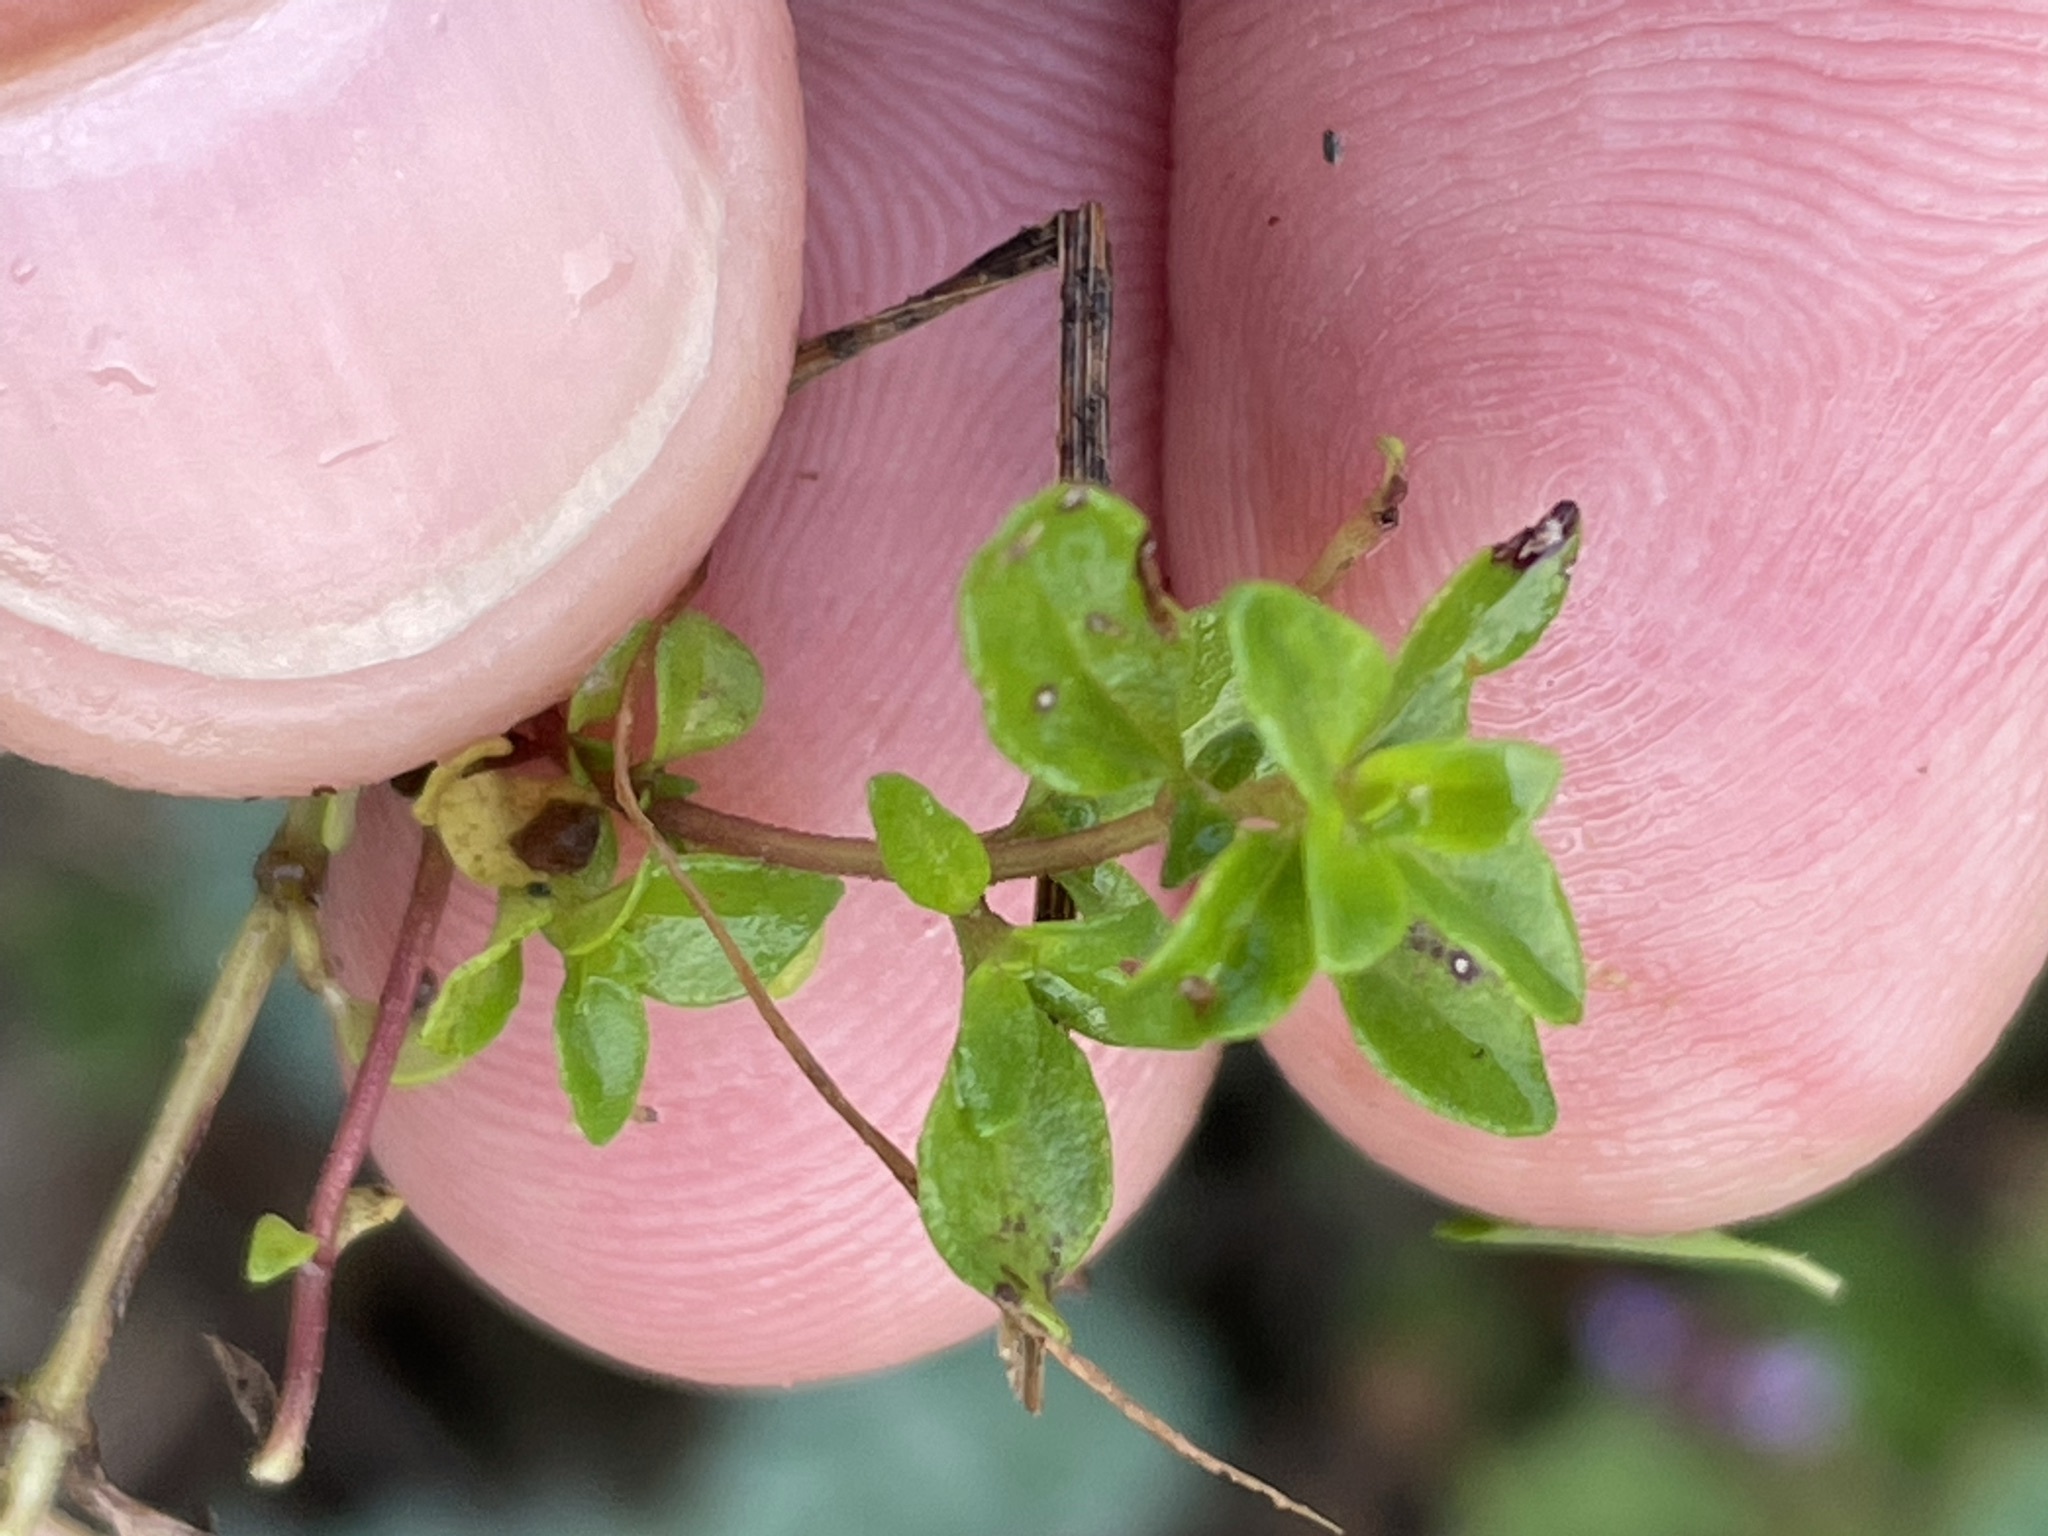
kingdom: Plantae
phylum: Tracheophyta
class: Magnoliopsida
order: Lamiales
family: Lamiaceae
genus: Thymus
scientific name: Thymus pulegioides
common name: Large thyme
